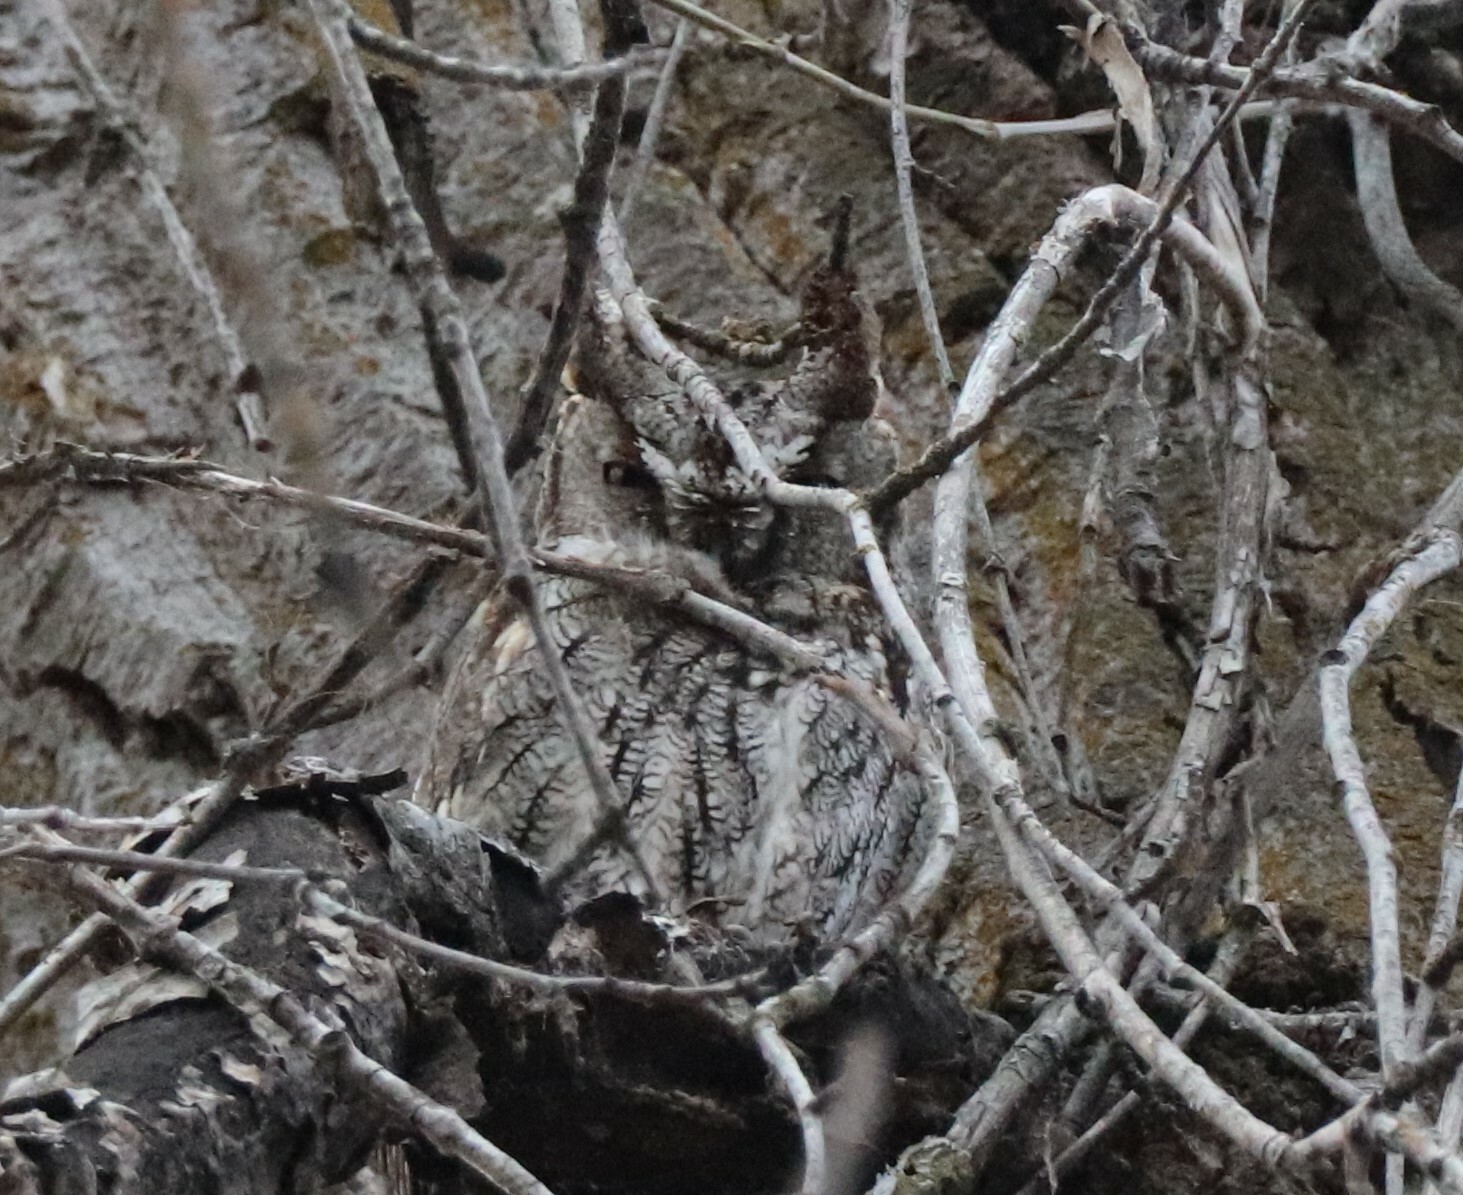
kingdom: Animalia
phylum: Chordata
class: Aves
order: Strigiformes
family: Strigidae
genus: Megascops
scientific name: Megascops kennicottii
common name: Western screech-owl
